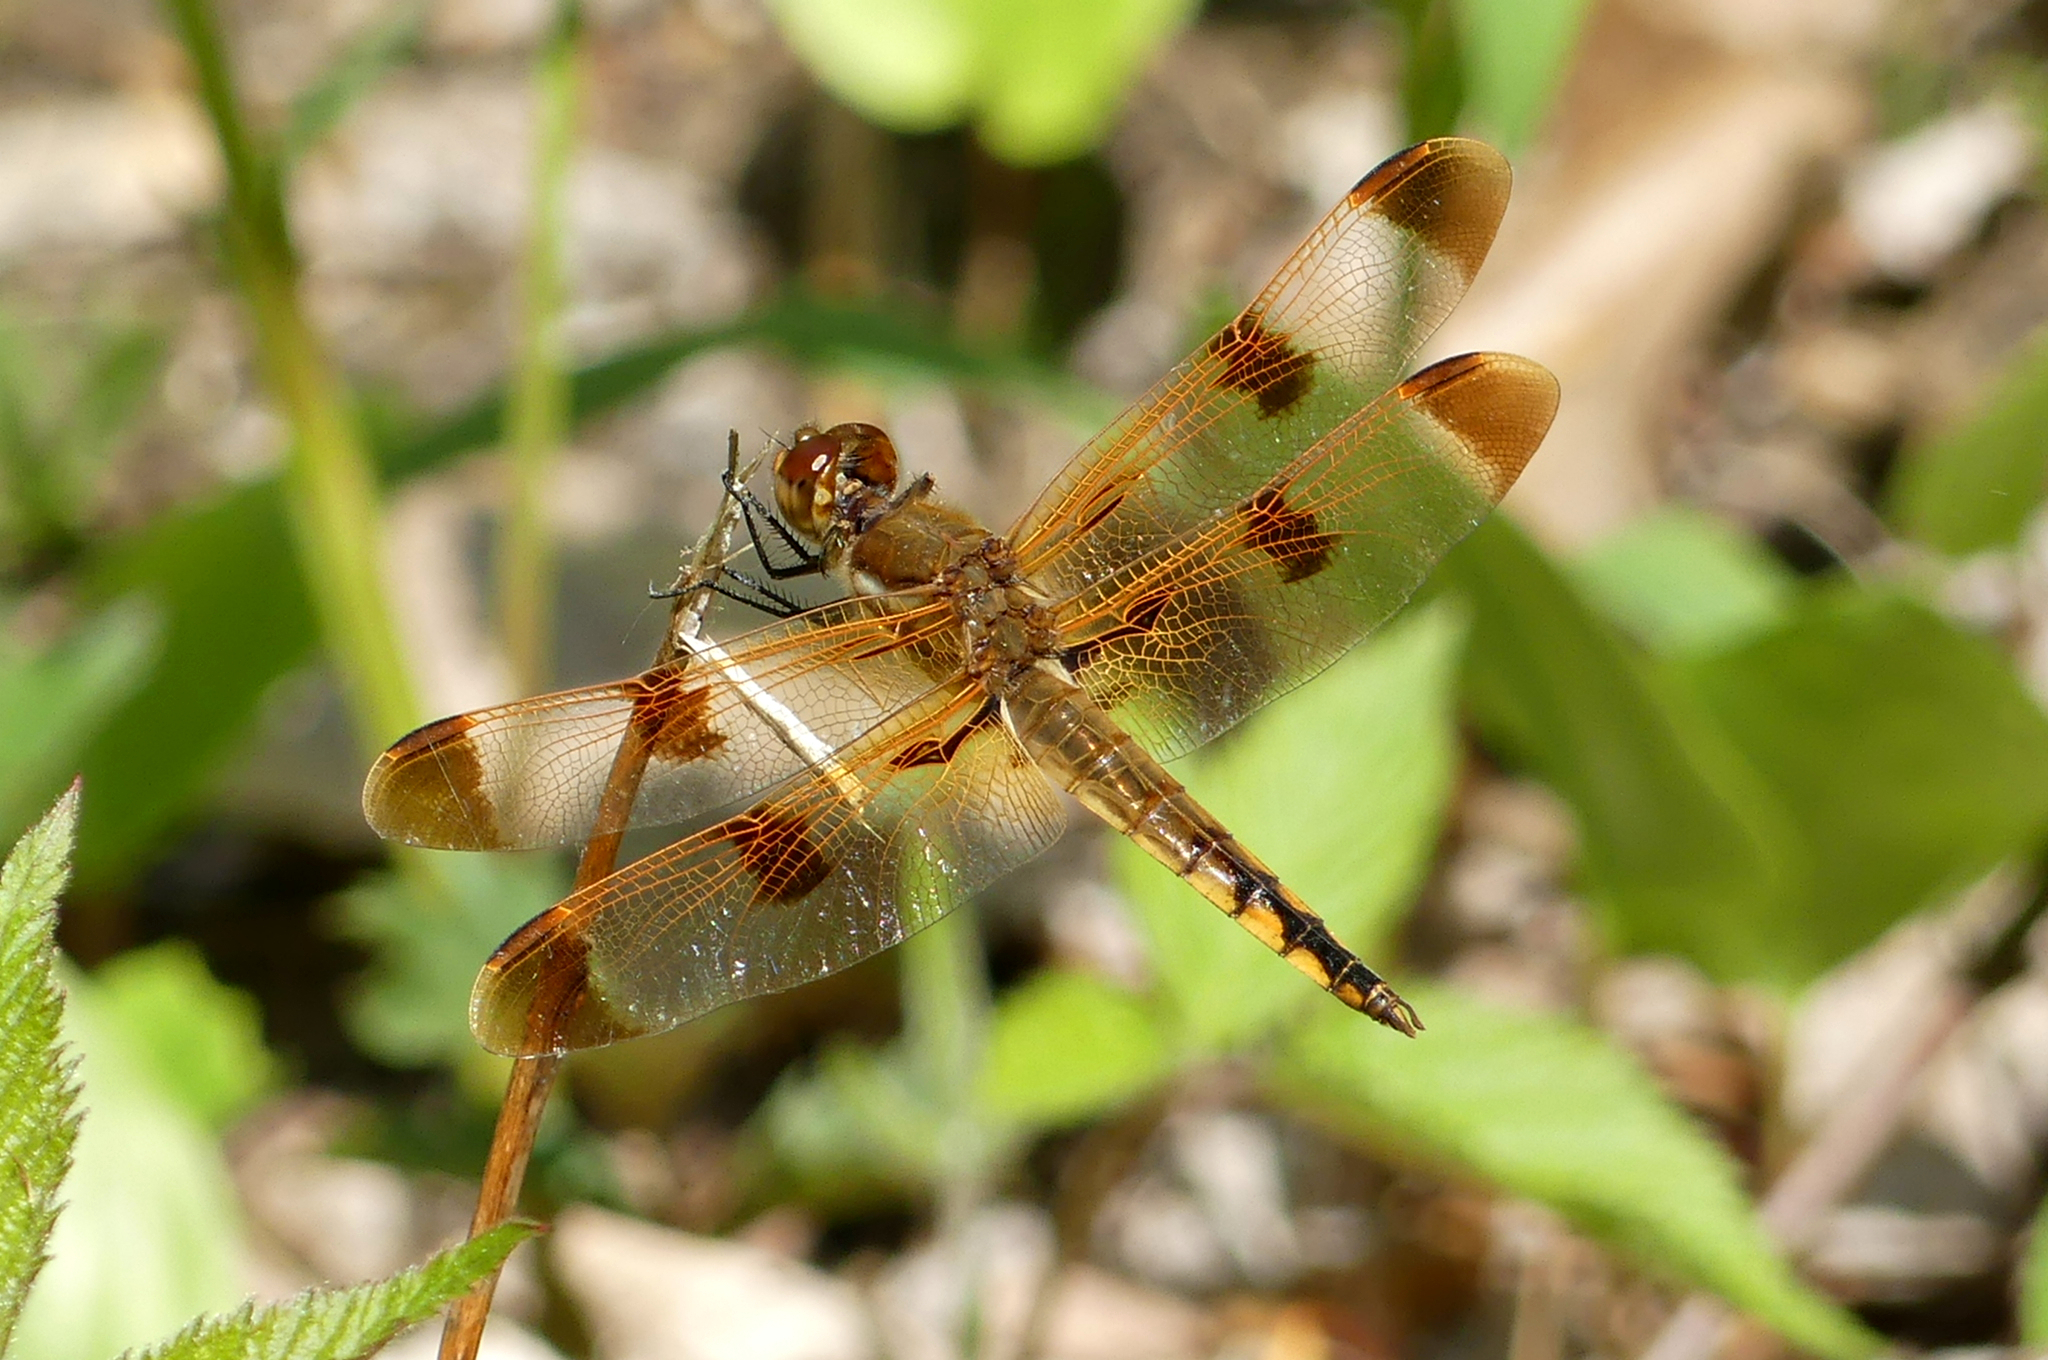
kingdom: Animalia
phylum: Arthropoda
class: Insecta
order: Odonata
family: Libellulidae
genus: Libellula
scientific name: Libellula semifasciata
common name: Painted skimmer
